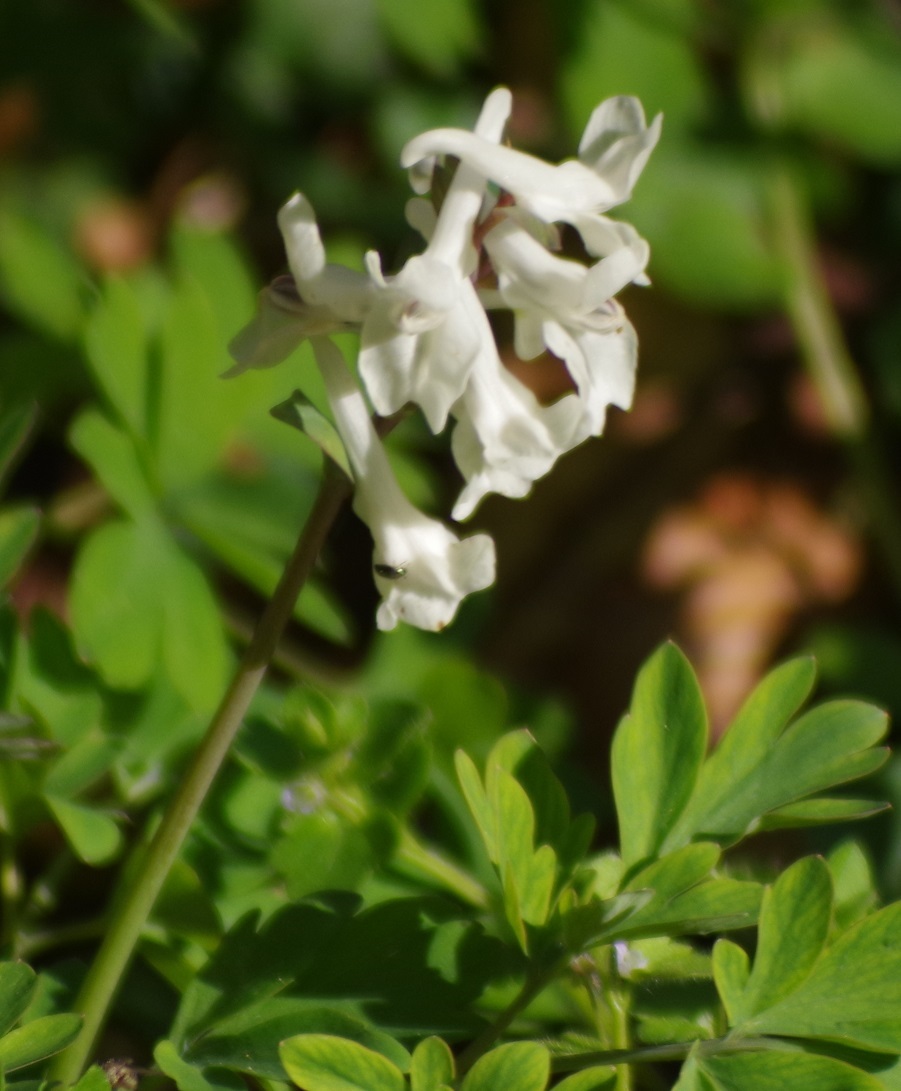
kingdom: Plantae
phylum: Tracheophyta
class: Magnoliopsida
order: Ranunculales
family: Papaveraceae
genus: Corydalis
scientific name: Corydalis cava
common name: Hollowroot
